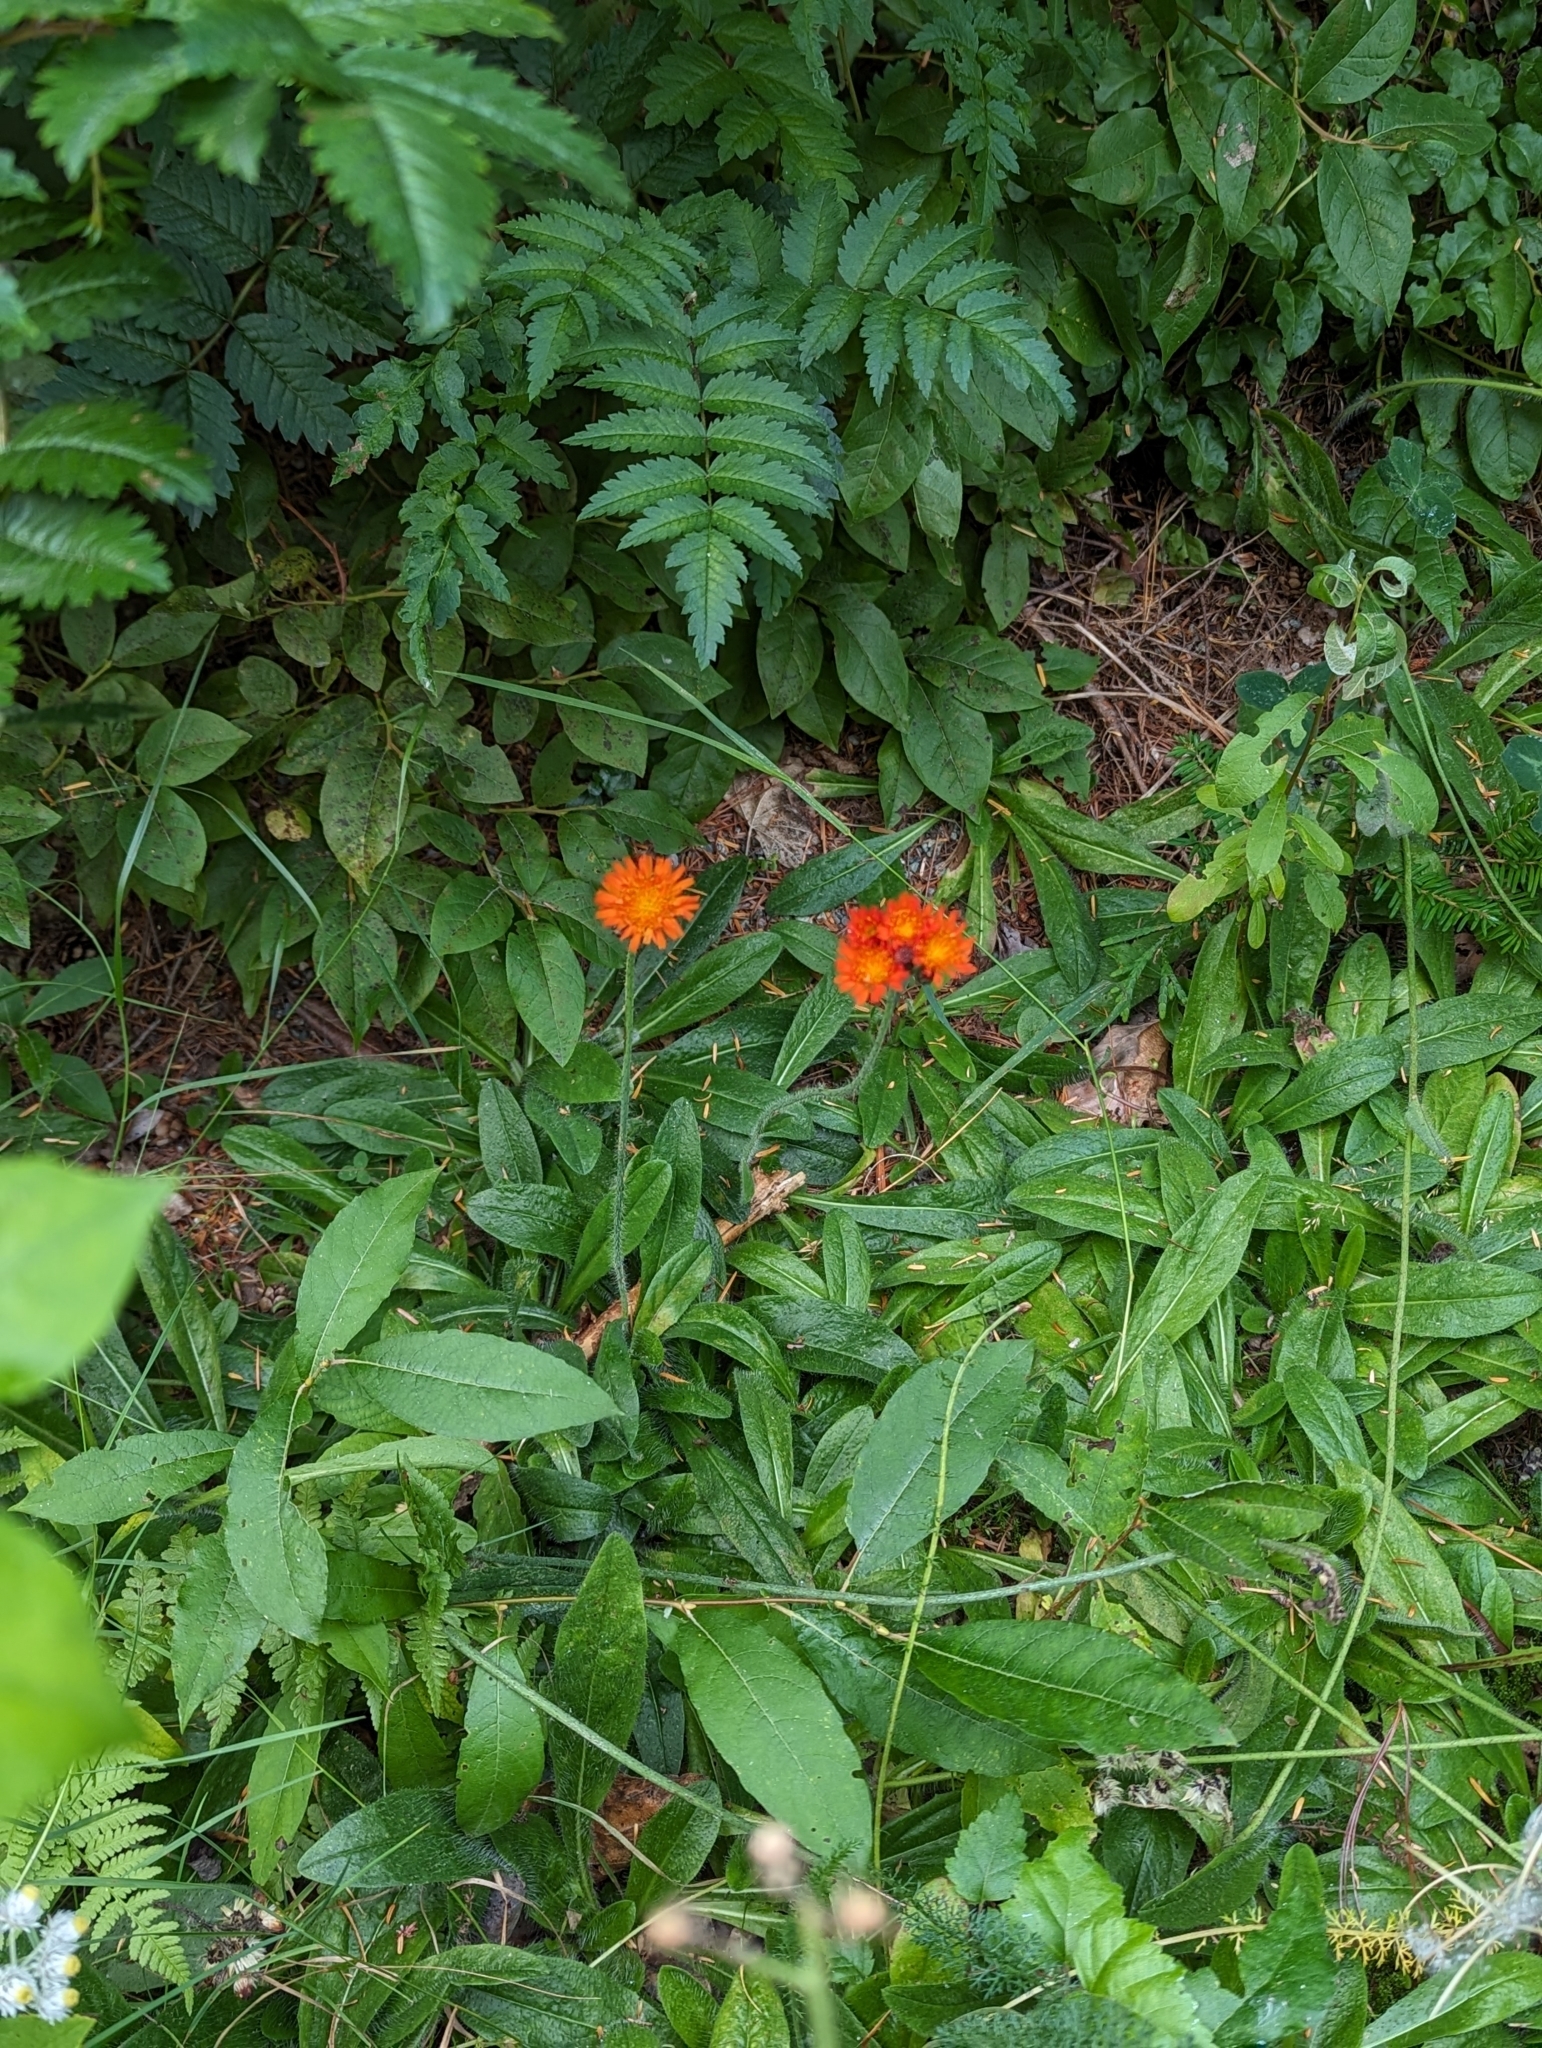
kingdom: Plantae
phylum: Tracheophyta
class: Magnoliopsida
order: Asterales
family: Asteraceae
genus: Pilosella
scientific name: Pilosella aurantiaca
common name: Fox-and-cubs
